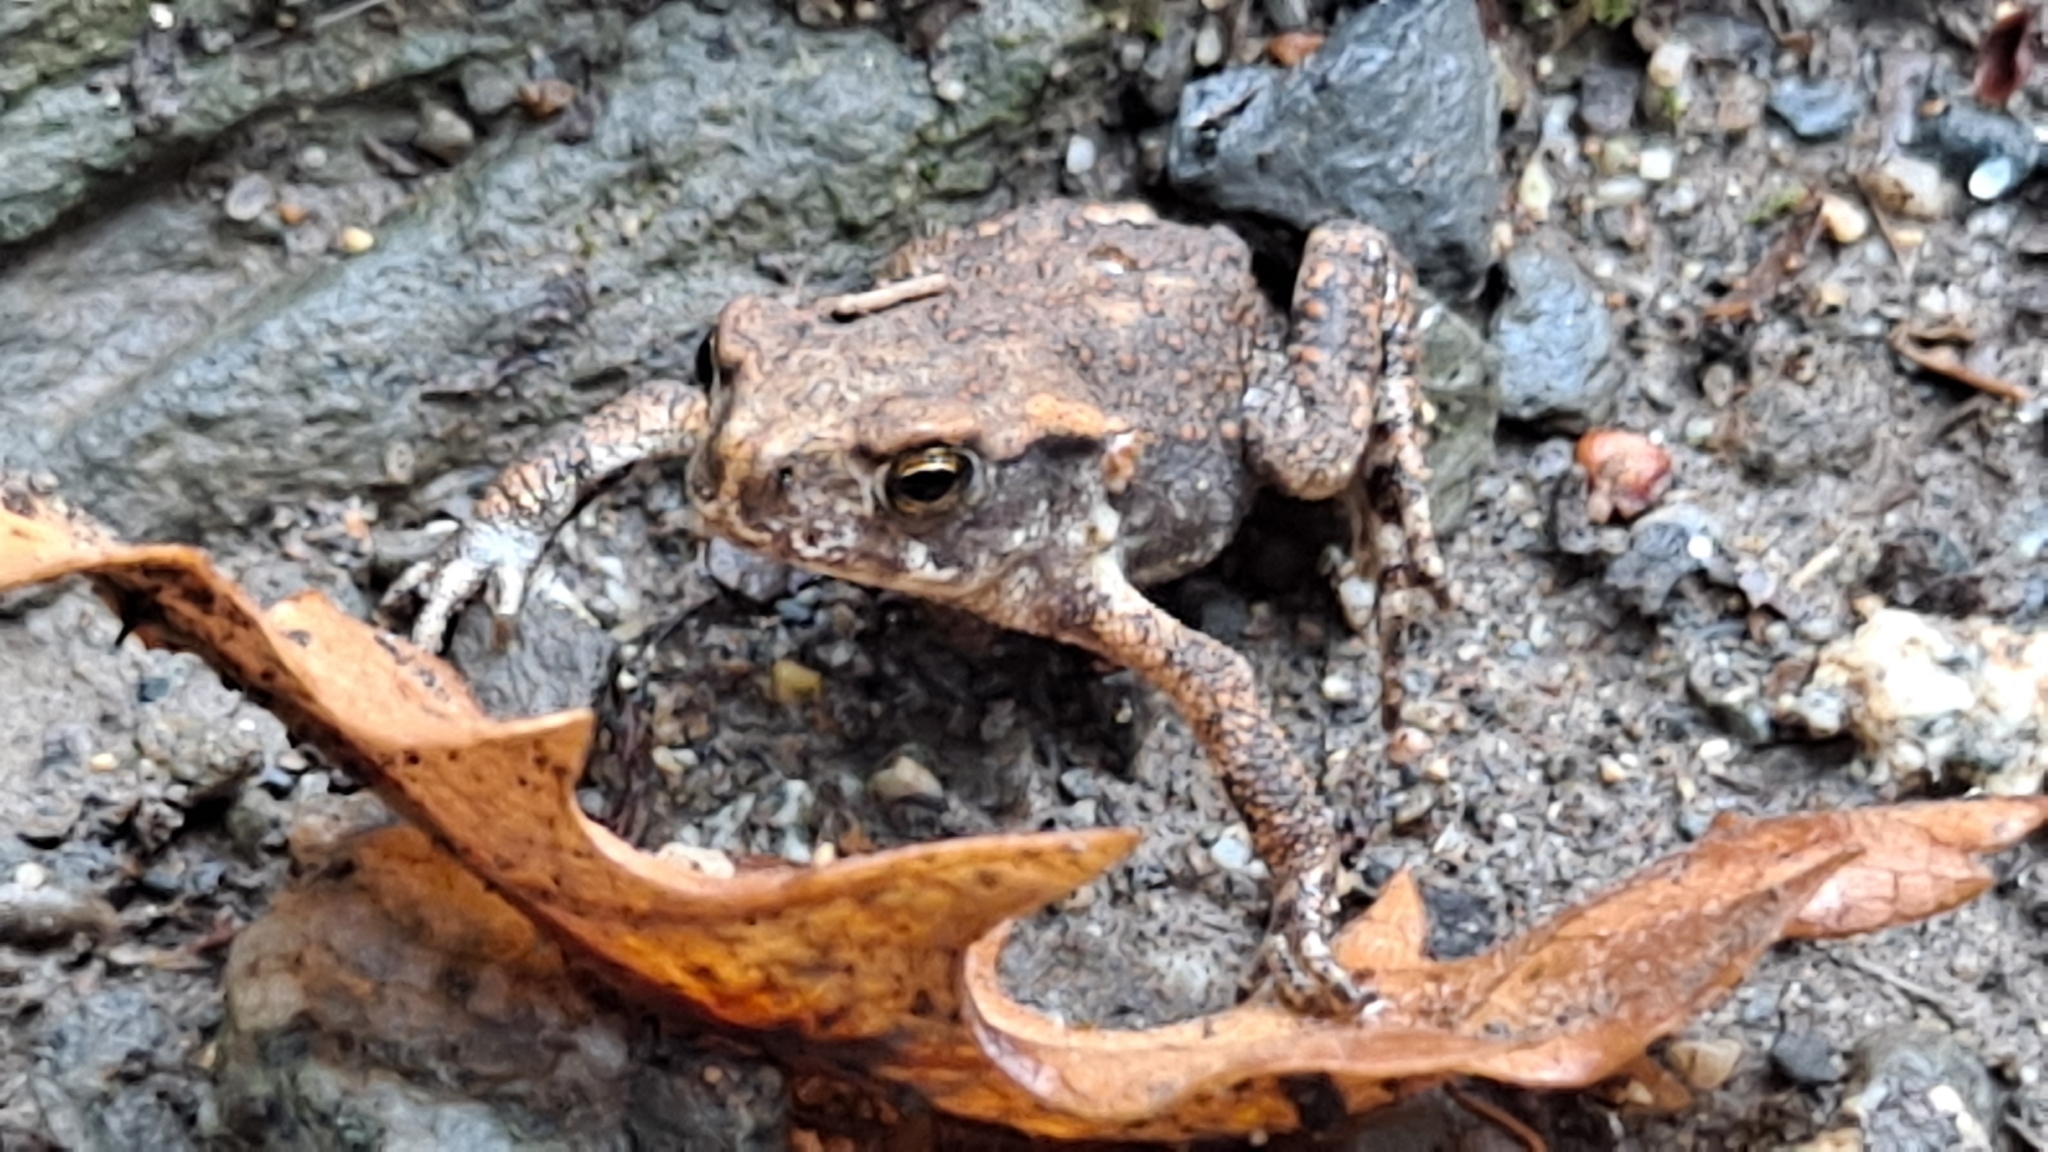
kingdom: Animalia
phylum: Chordata
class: Amphibia
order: Anura
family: Bufonidae
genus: Bufo
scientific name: Bufo spinosus
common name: Western common toad
